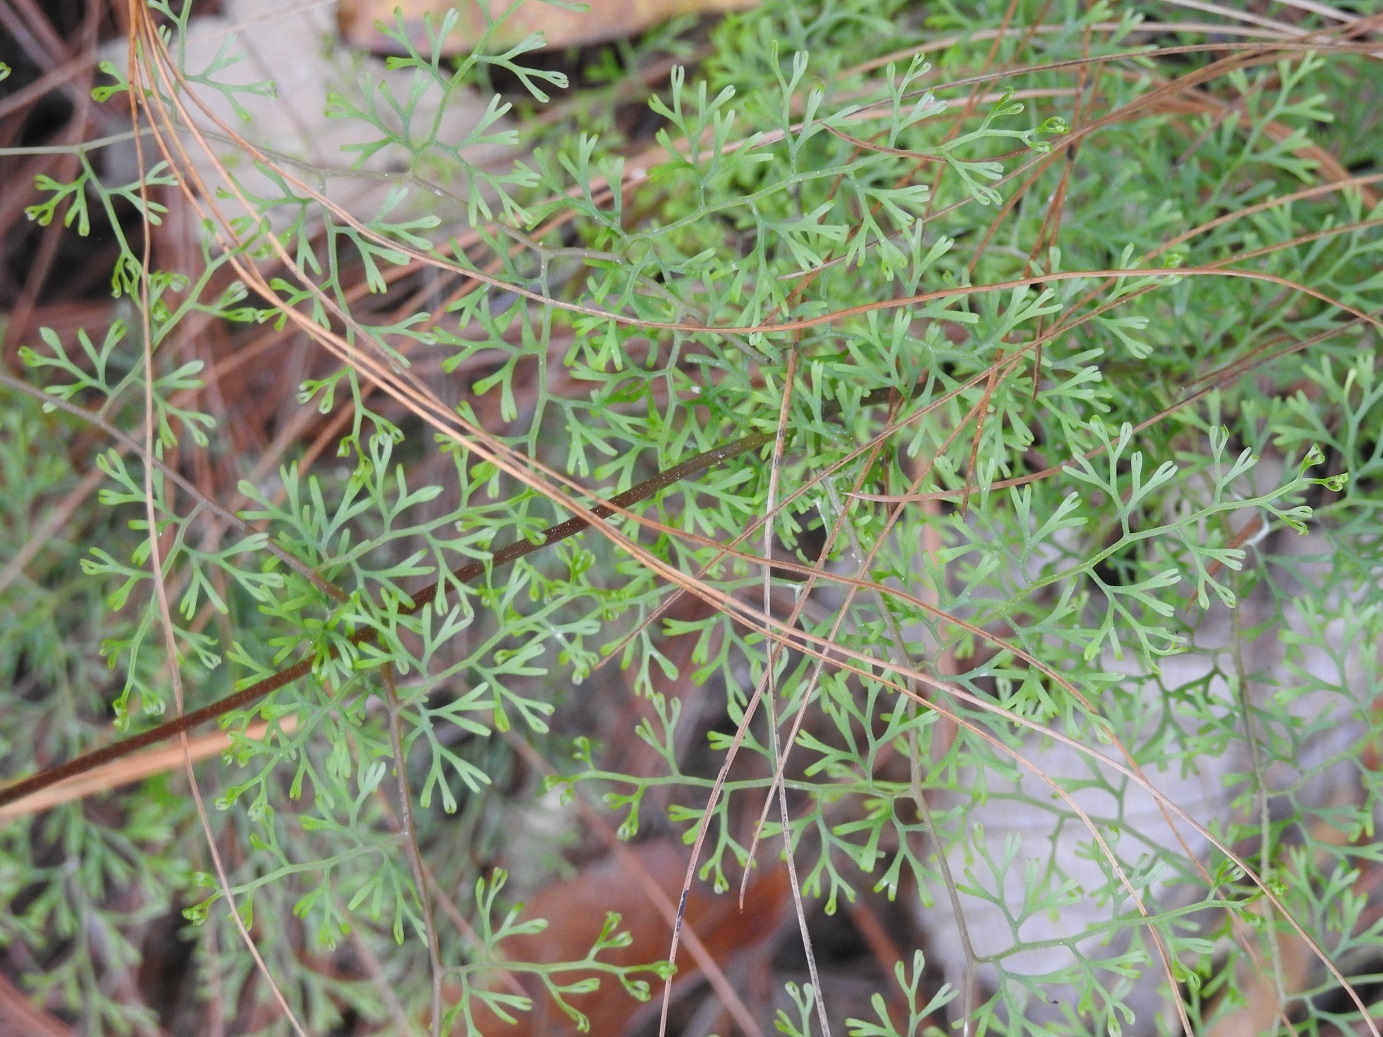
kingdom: Plantae
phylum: Tracheophyta
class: Polypodiopsida
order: Polypodiales
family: Lindsaeaceae
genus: Odontosoria
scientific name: Odontosoria guatemalensis
